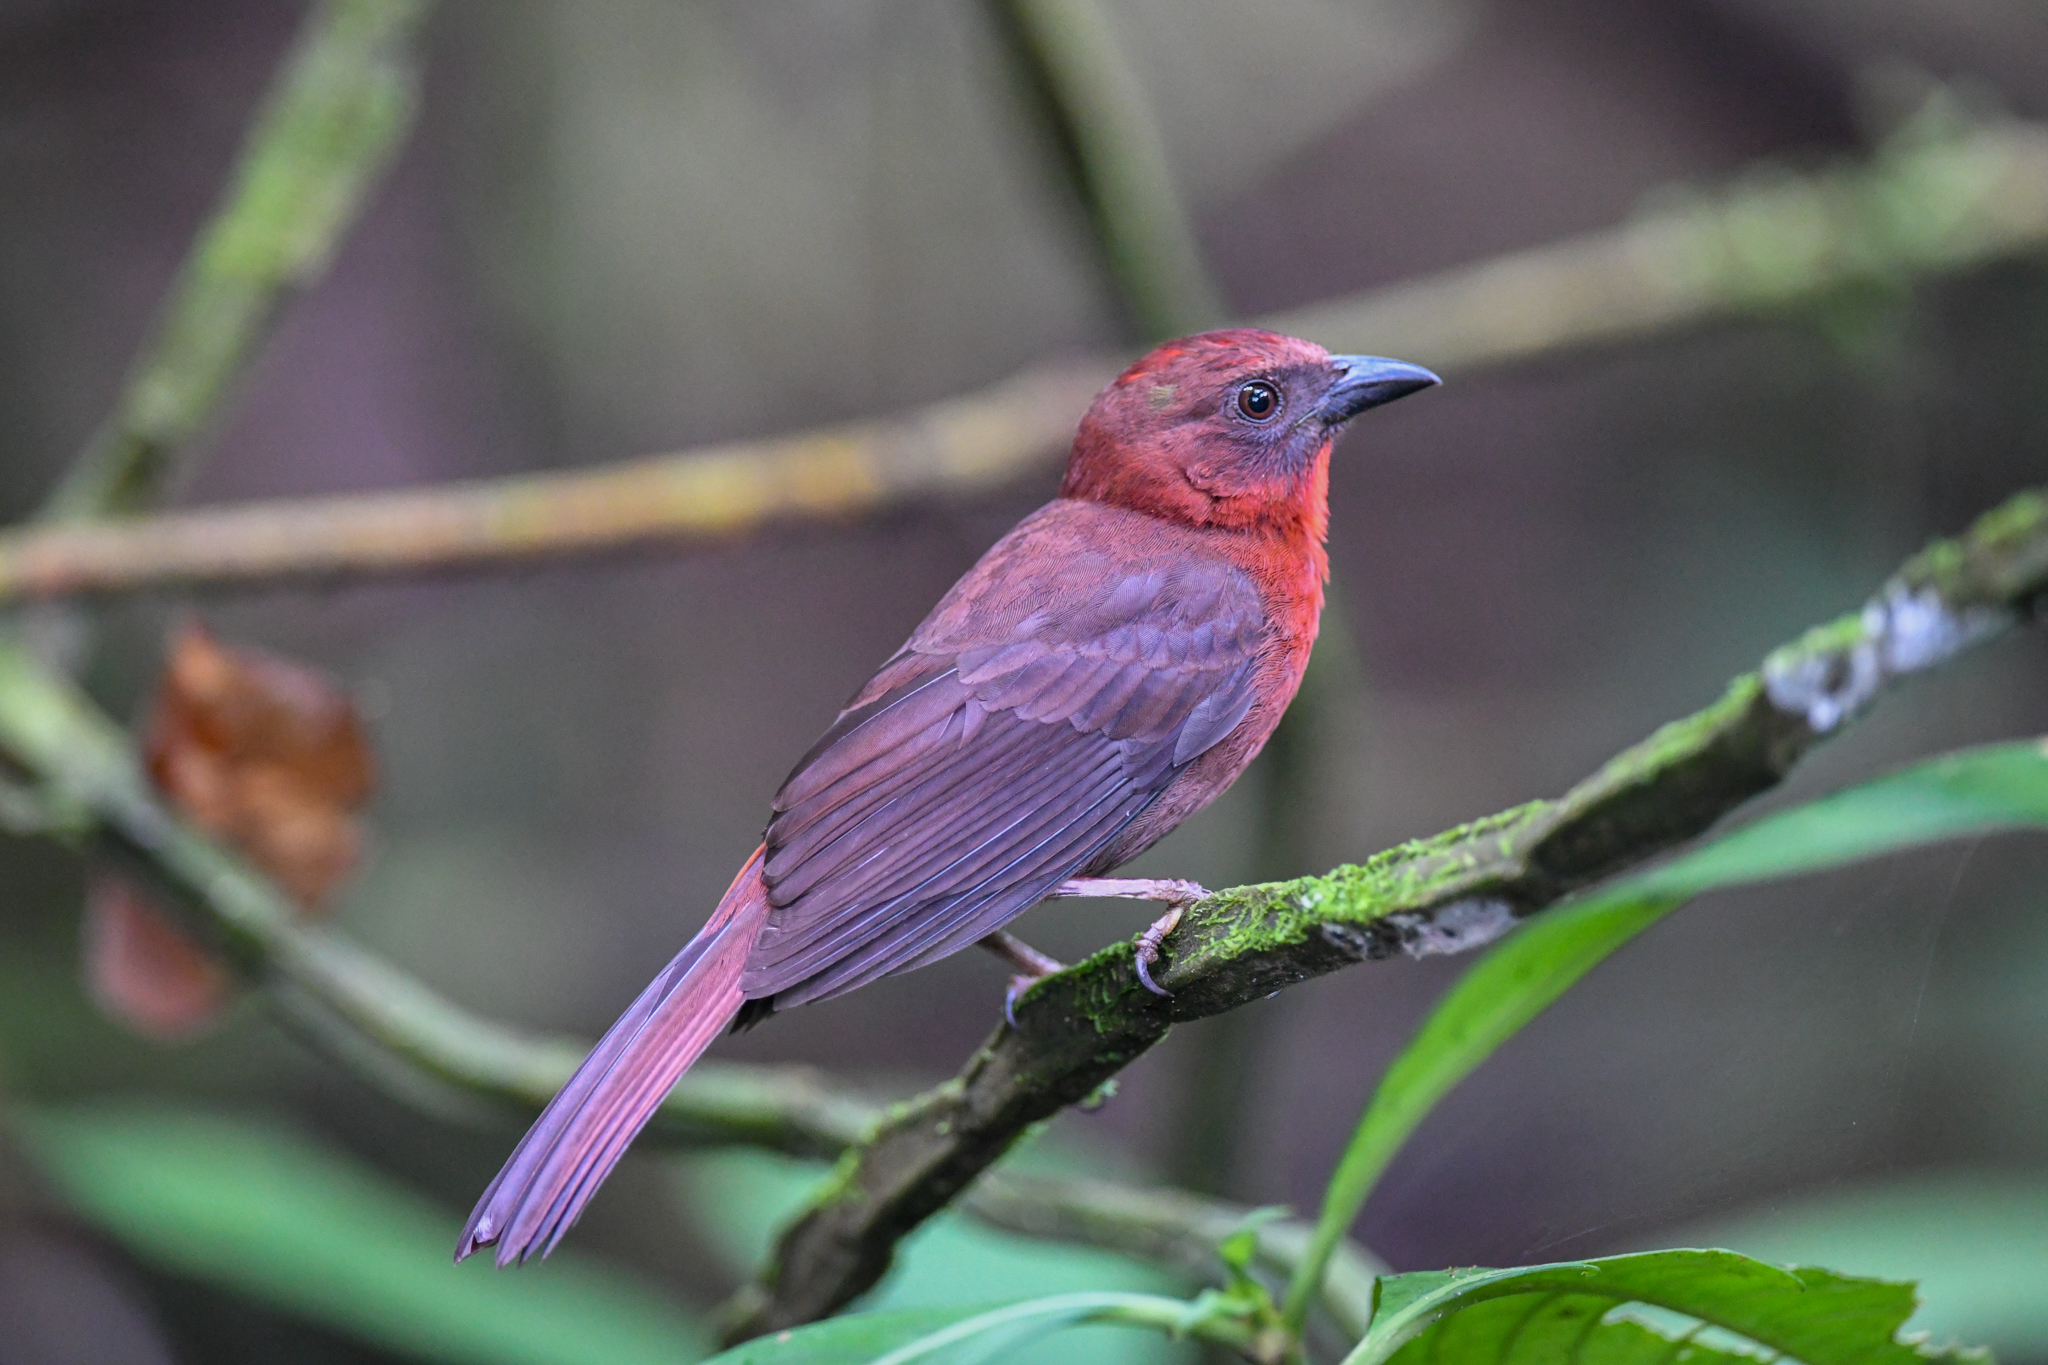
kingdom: Animalia
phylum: Chordata
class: Aves
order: Passeriformes
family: Cardinalidae
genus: Habia
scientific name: Habia fuscicauda
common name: Red-throated ant-tanager
